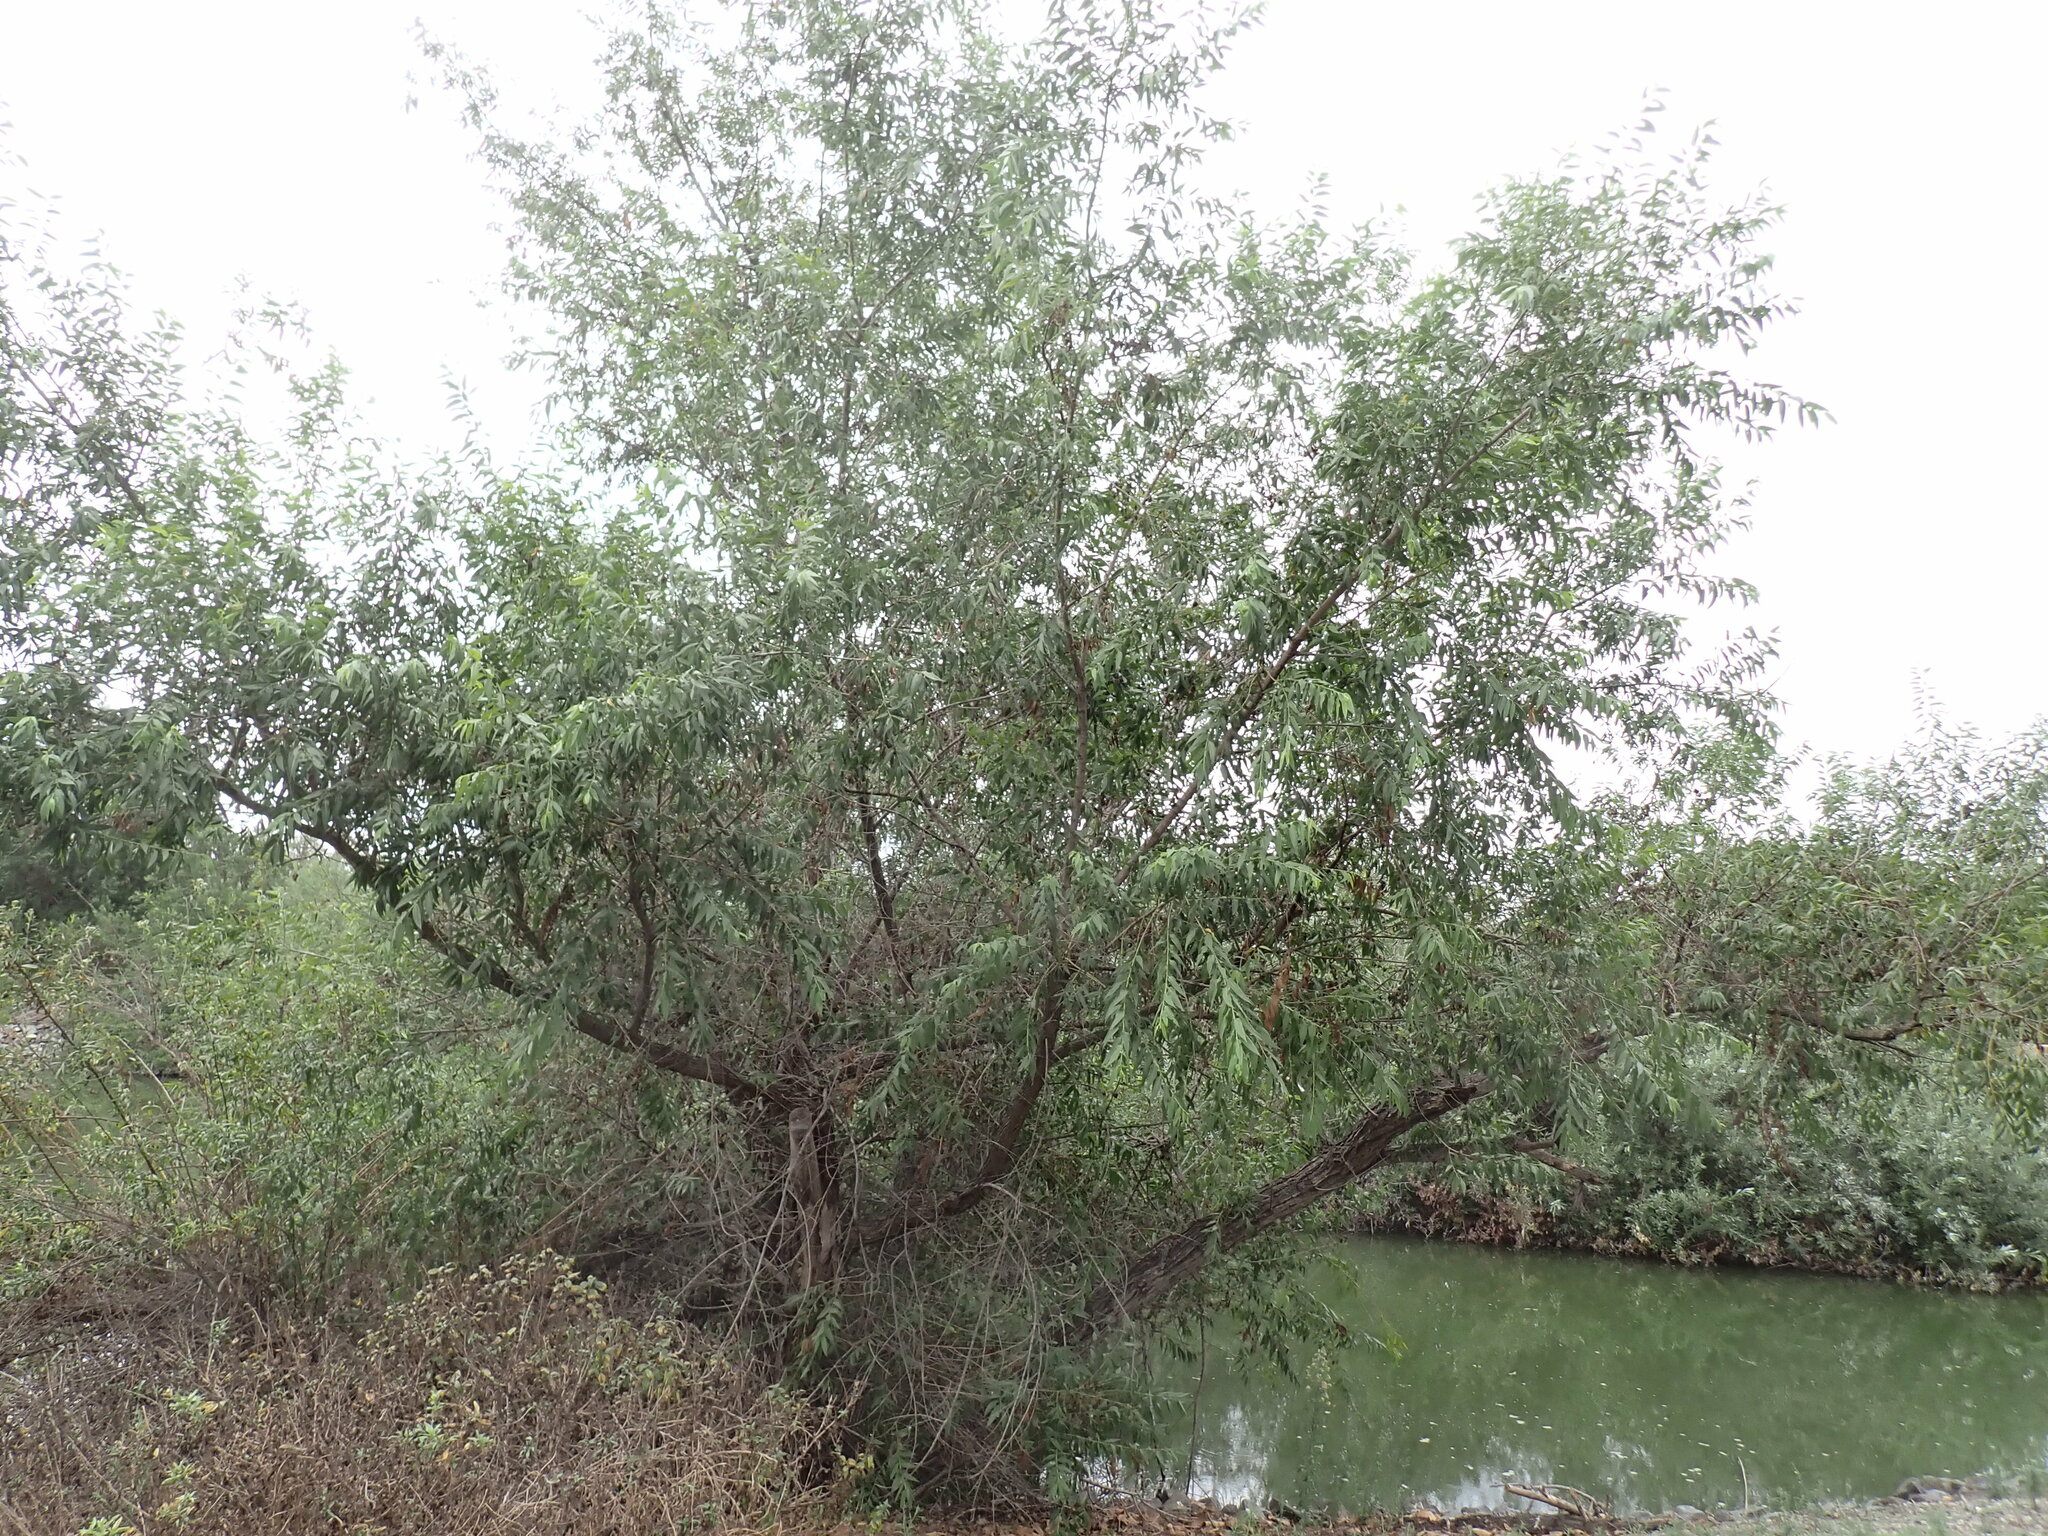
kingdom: Plantae
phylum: Tracheophyta
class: Magnoliopsida
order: Malpighiales
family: Salicaceae
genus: Salix
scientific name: Salix gooddingii
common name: Goodding's willow
